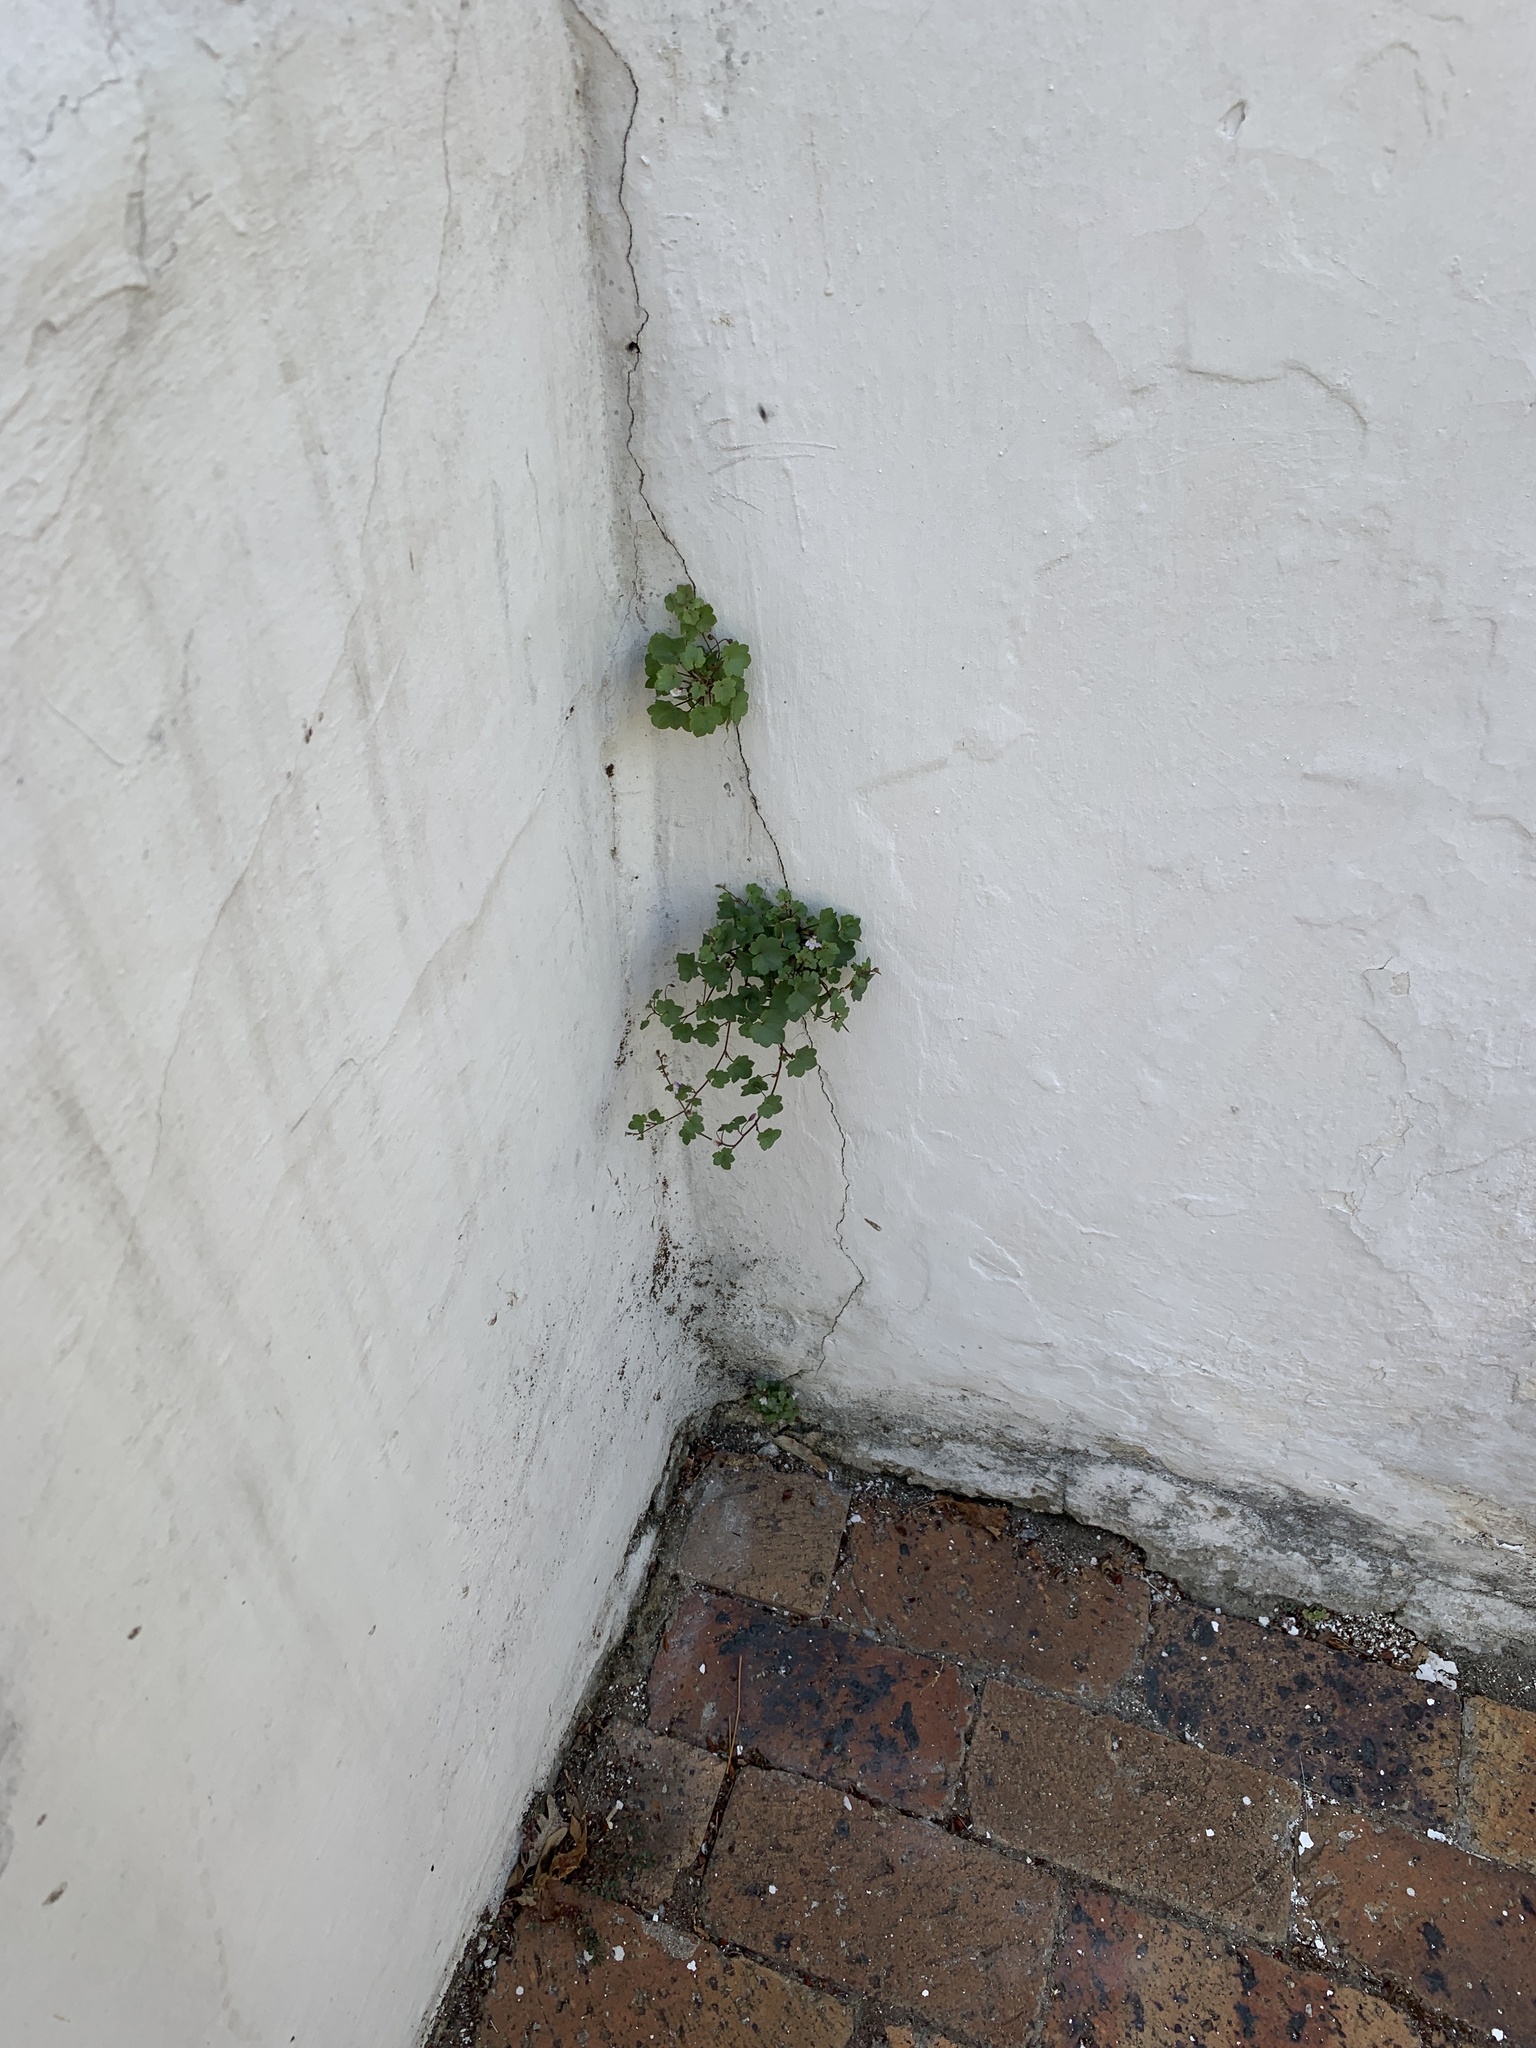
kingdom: Plantae
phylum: Tracheophyta
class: Magnoliopsida
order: Lamiales
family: Plantaginaceae
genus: Cymbalaria
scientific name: Cymbalaria muralis
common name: Ivy-leaved toadflax
